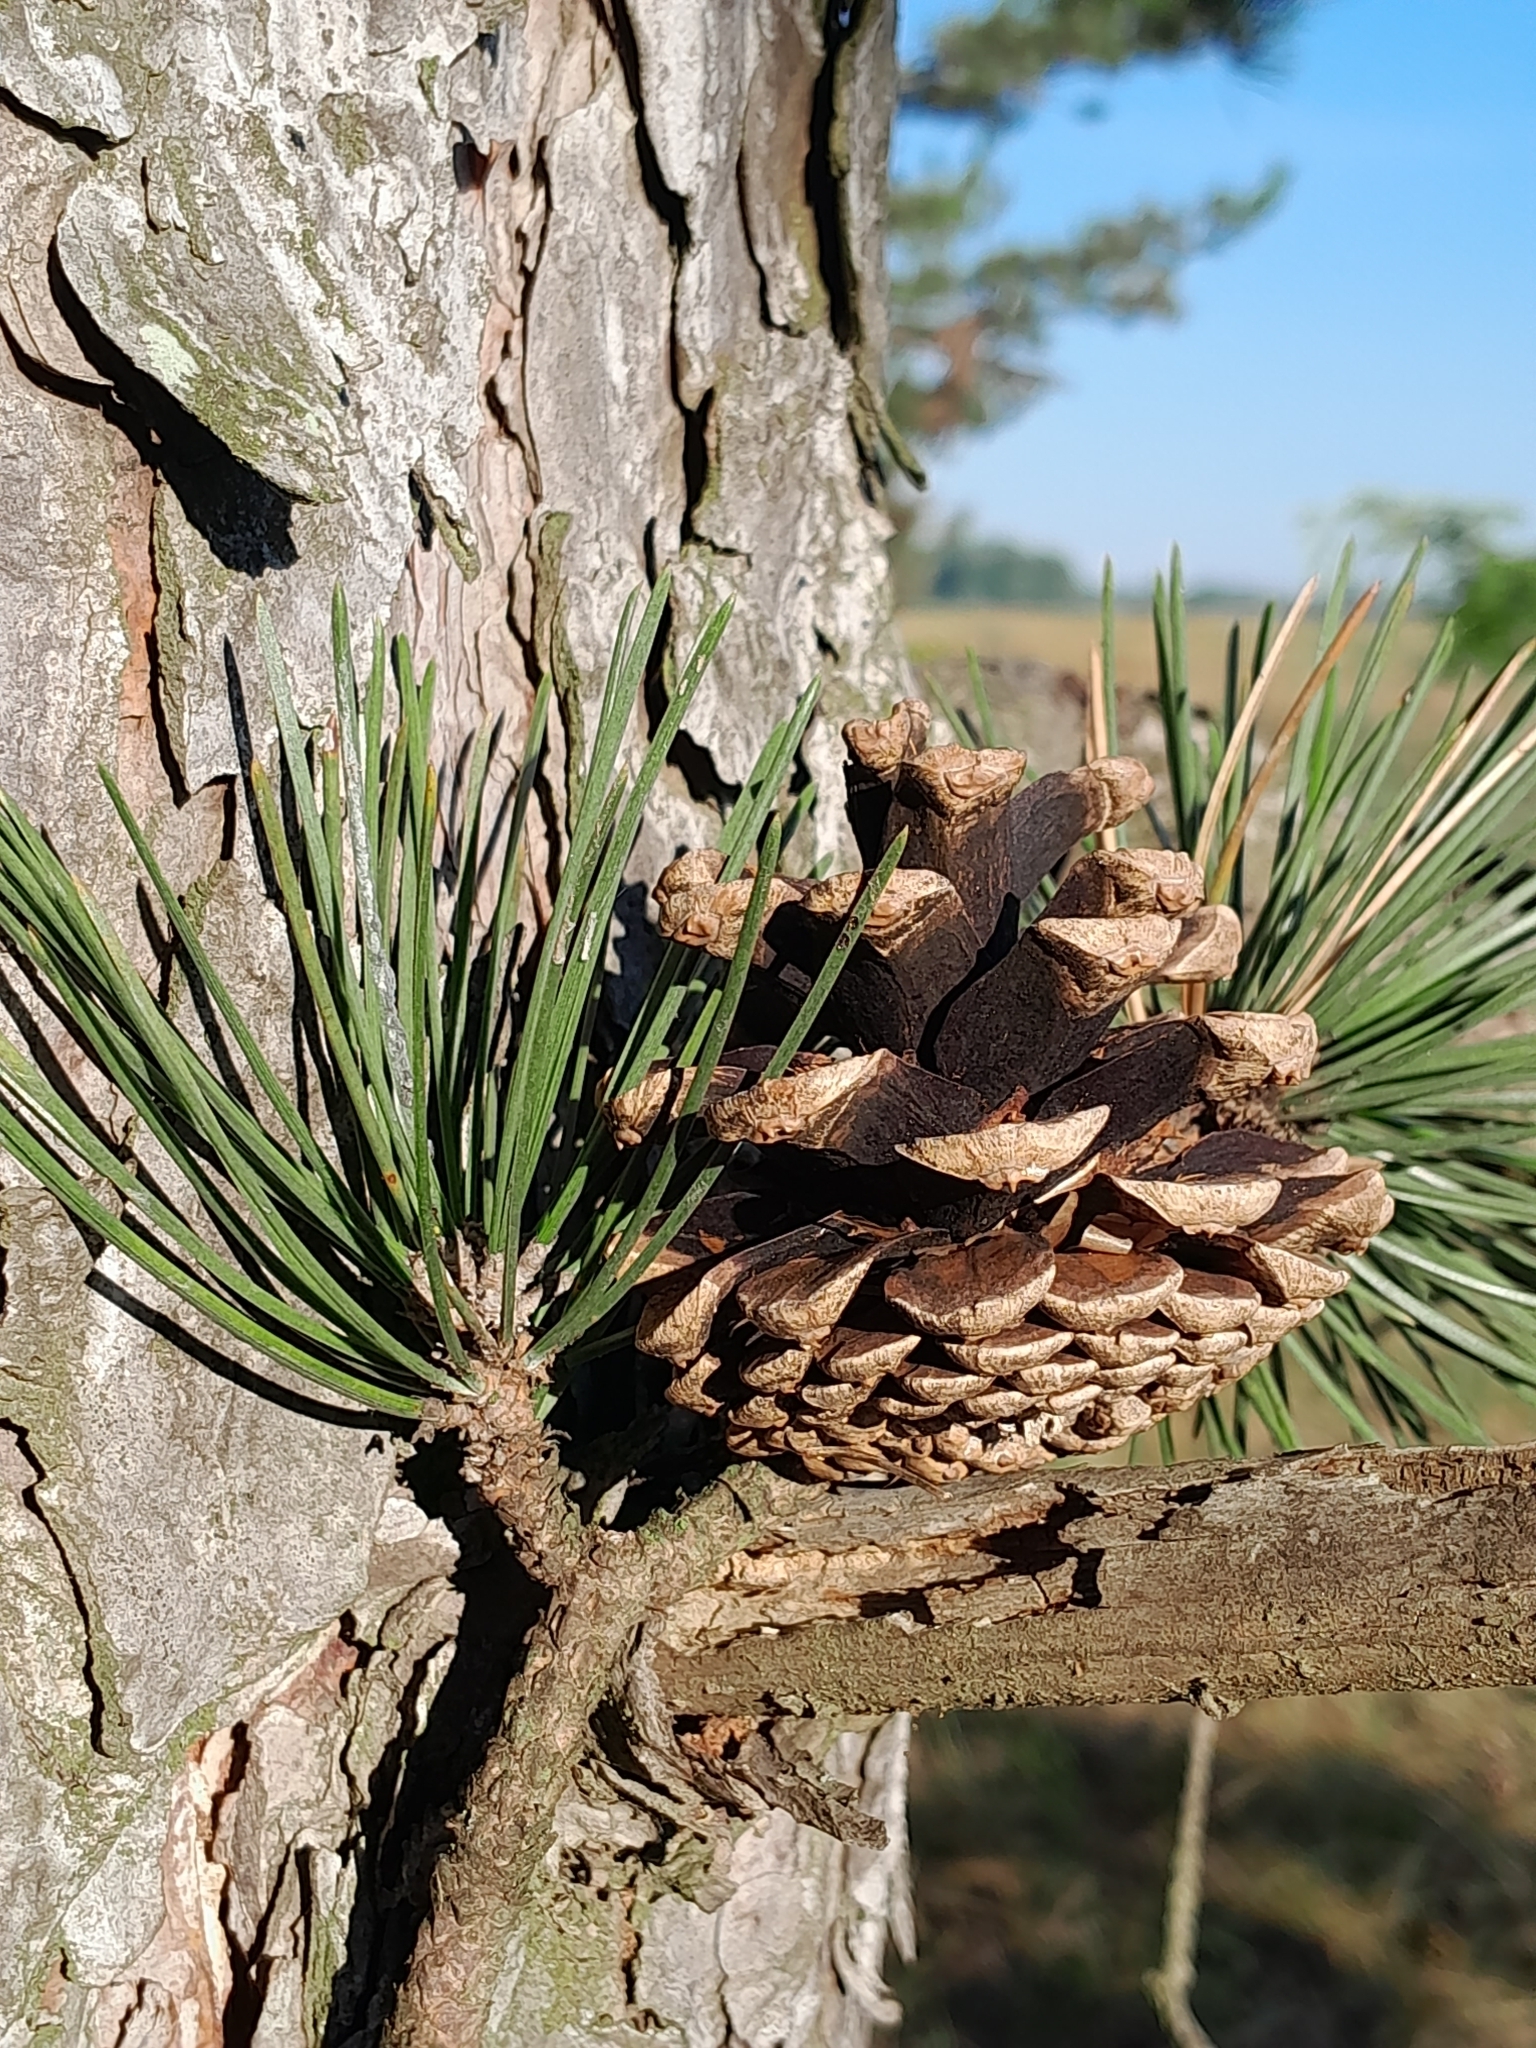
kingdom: Plantae
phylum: Tracheophyta
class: Pinopsida
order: Pinales
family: Pinaceae
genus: Pinus
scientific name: Pinus nigra
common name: Austrian pine
